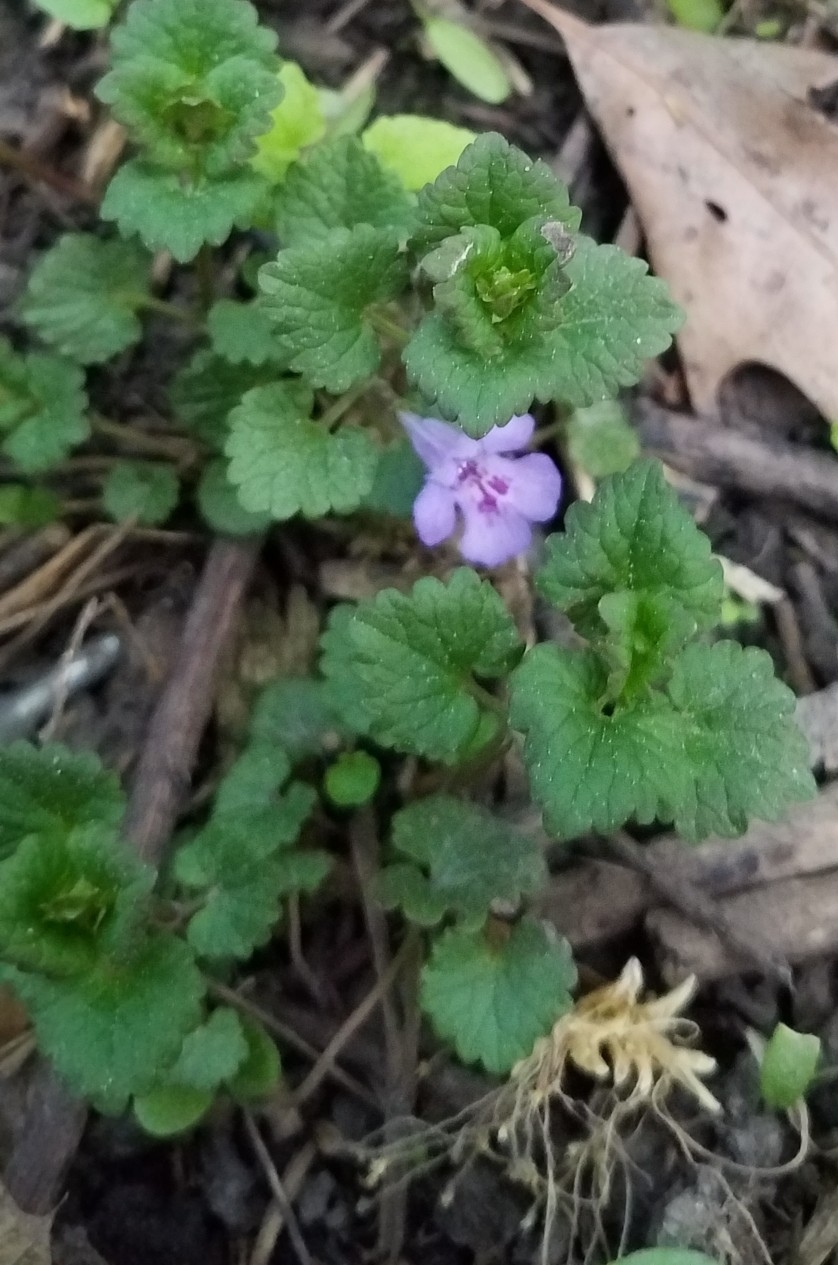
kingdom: Plantae
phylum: Tracheophyta
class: Magnoliopsida
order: Lamiales
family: Lamiaceae
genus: Glechoma
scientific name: Glechoma hederacea
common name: Ground ivy
